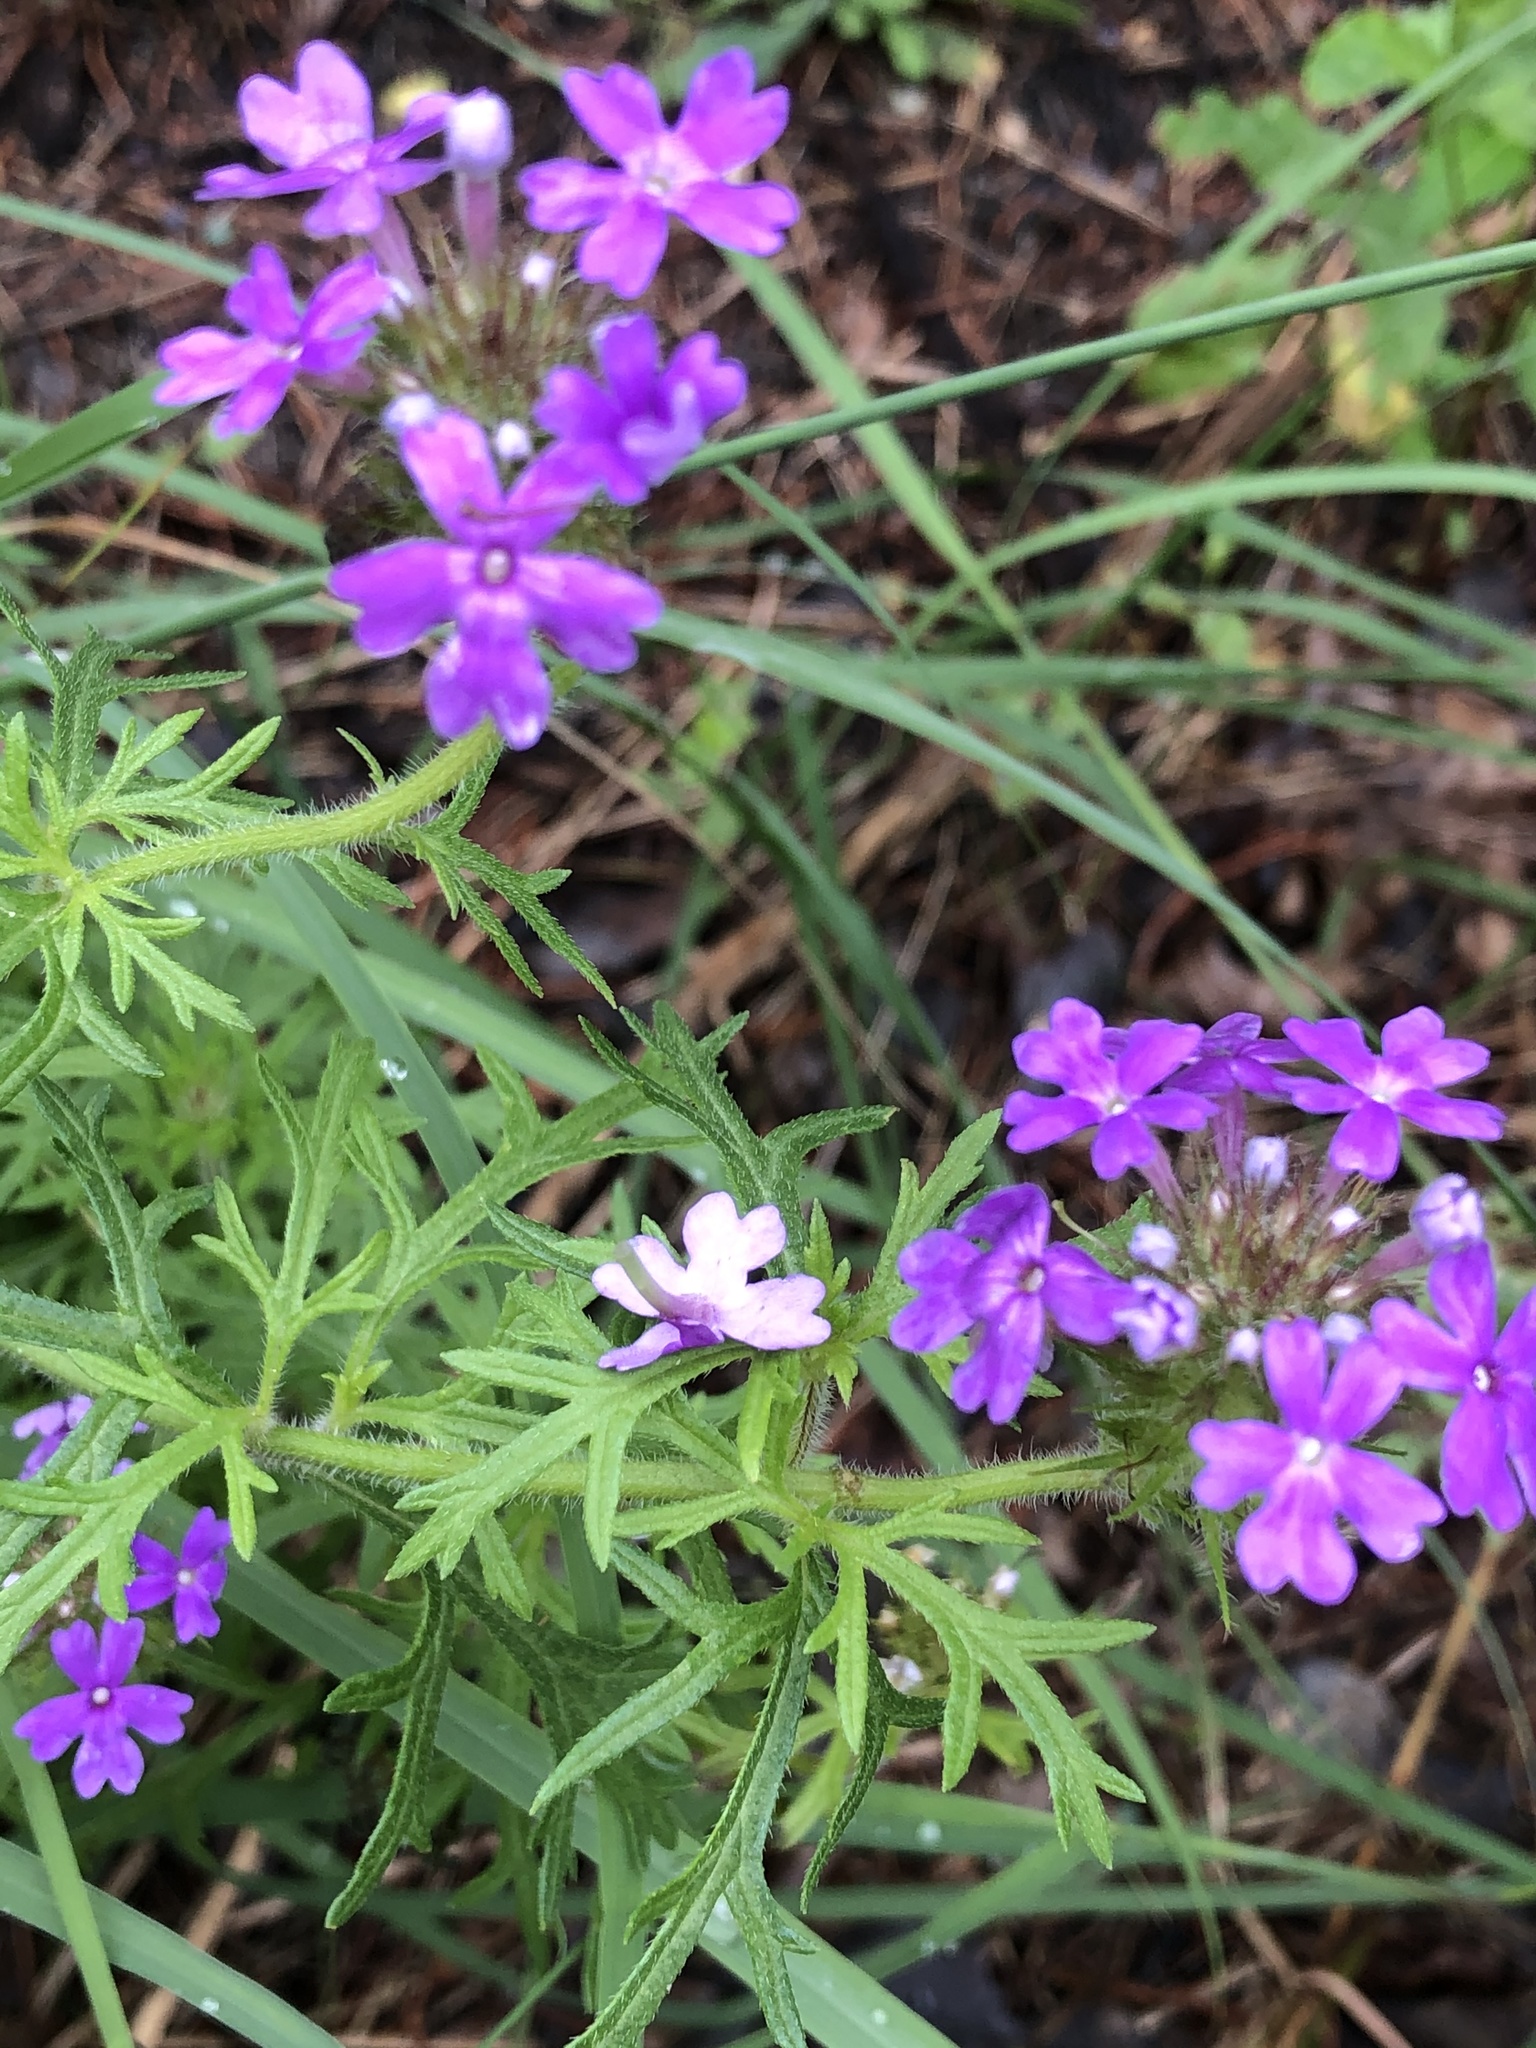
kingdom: Plantae
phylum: Tracheophyta
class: Magnoliopsida
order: Lamiales
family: Verbenaceae
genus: Verbena
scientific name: Verbena bipinnatifida
